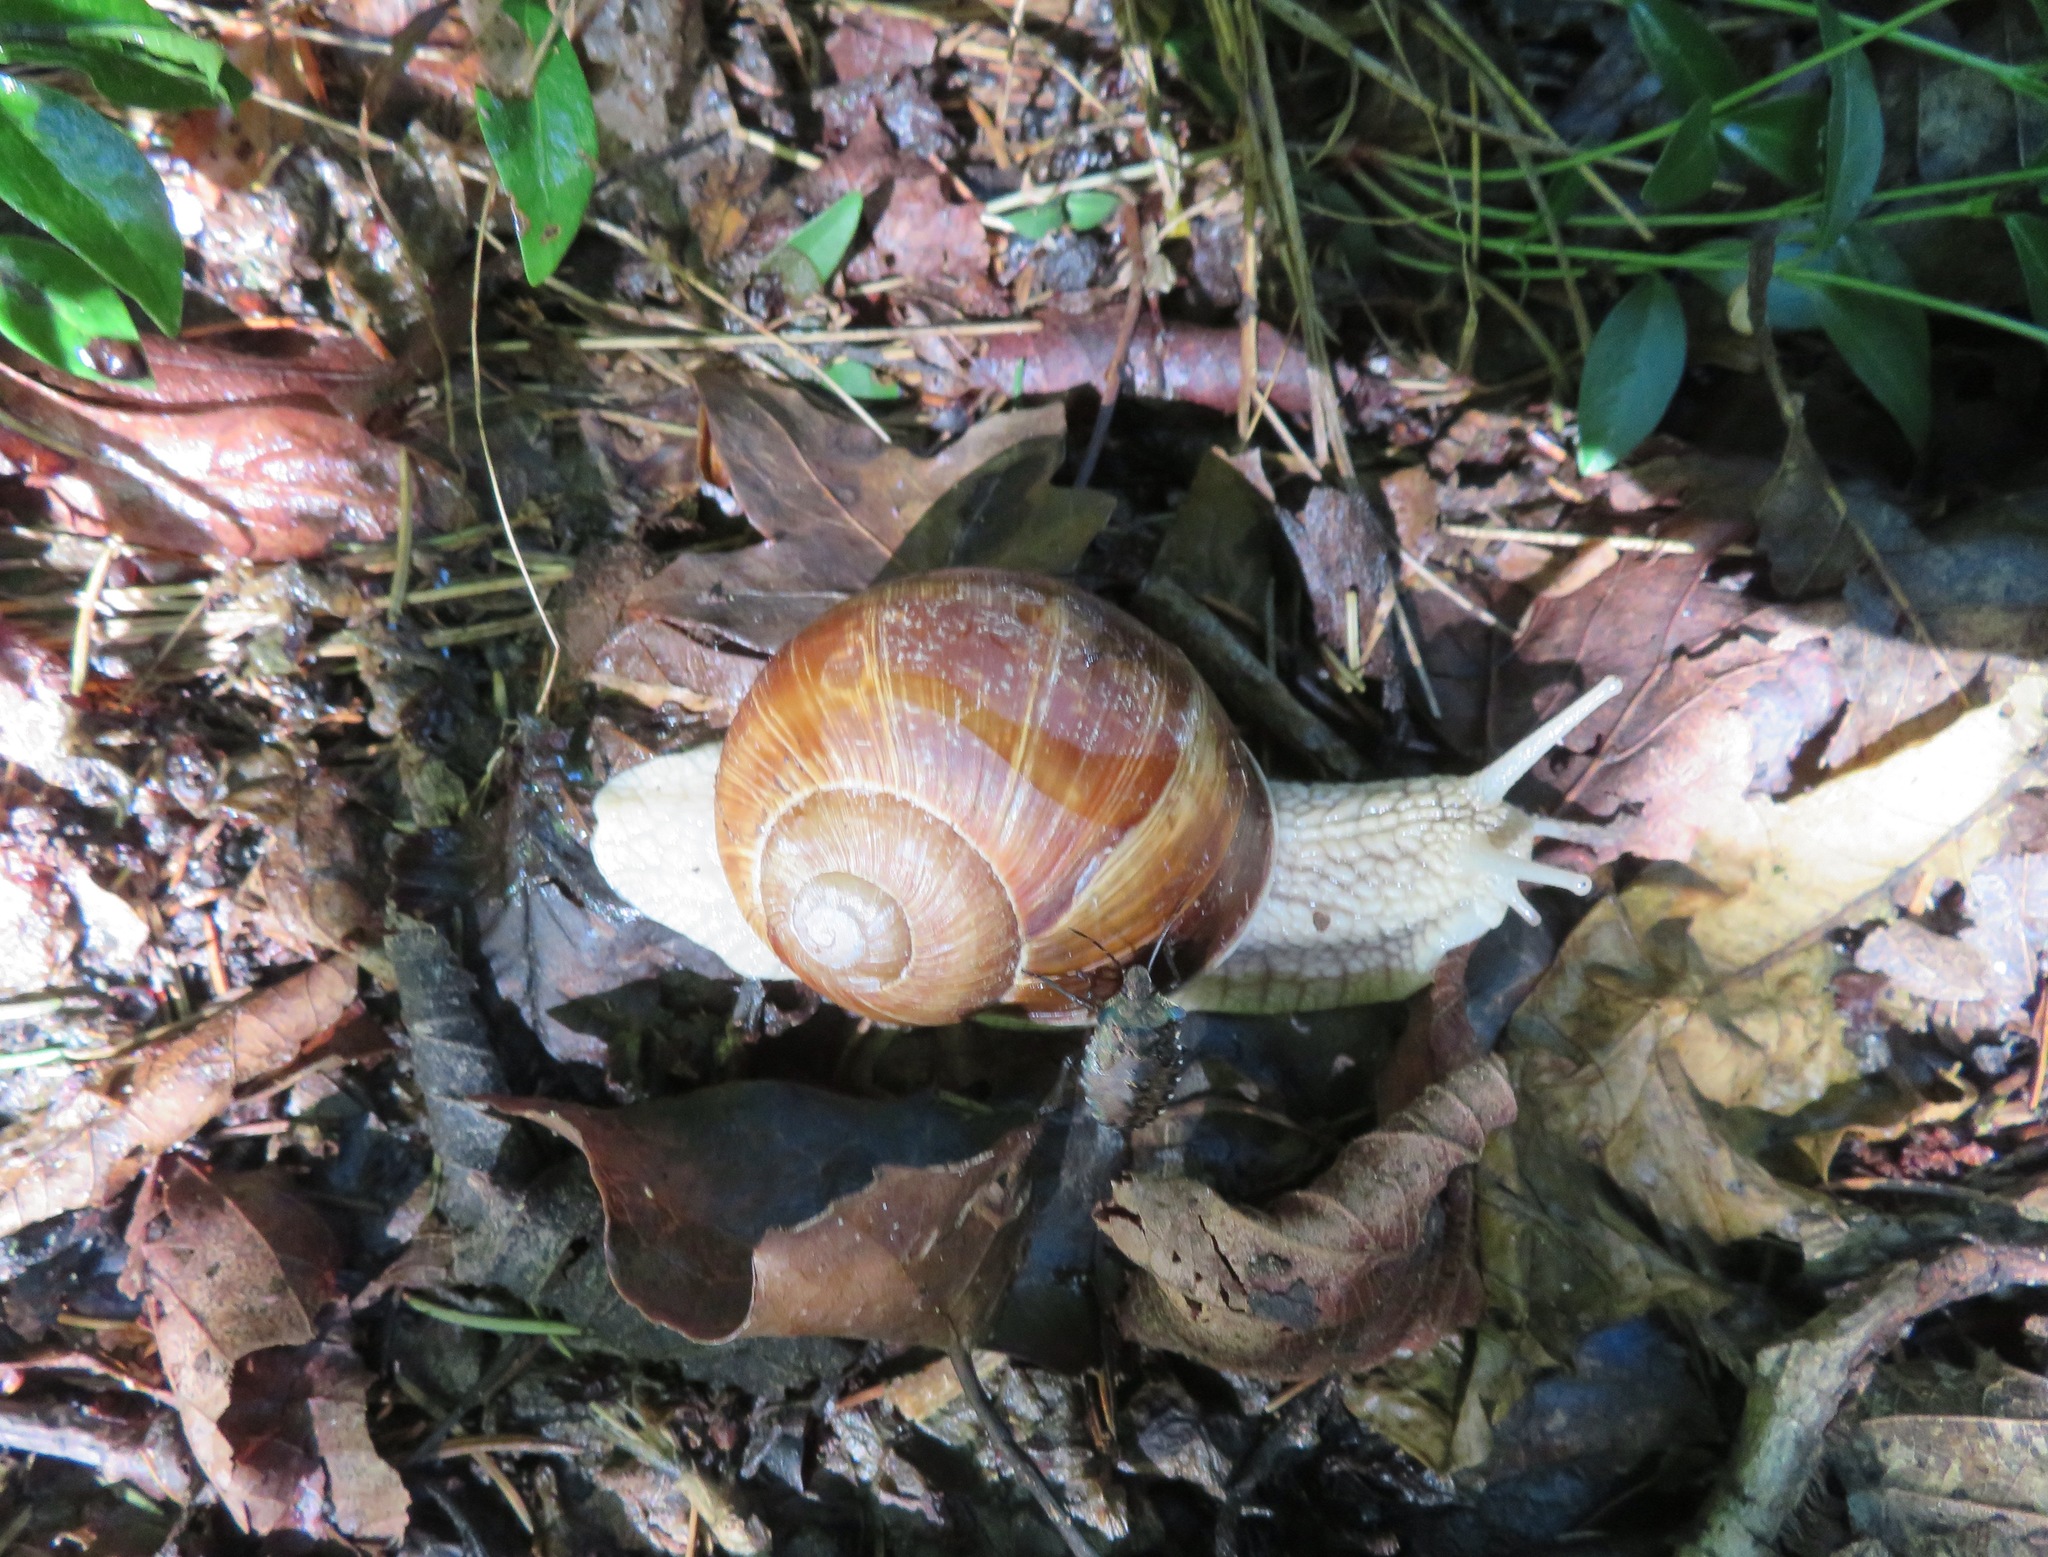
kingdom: Animalia
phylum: Mollusca
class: Gastropoda
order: Stylommatophora
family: Helicidae
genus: Helix
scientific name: Helix pomatia
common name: Roman snail
